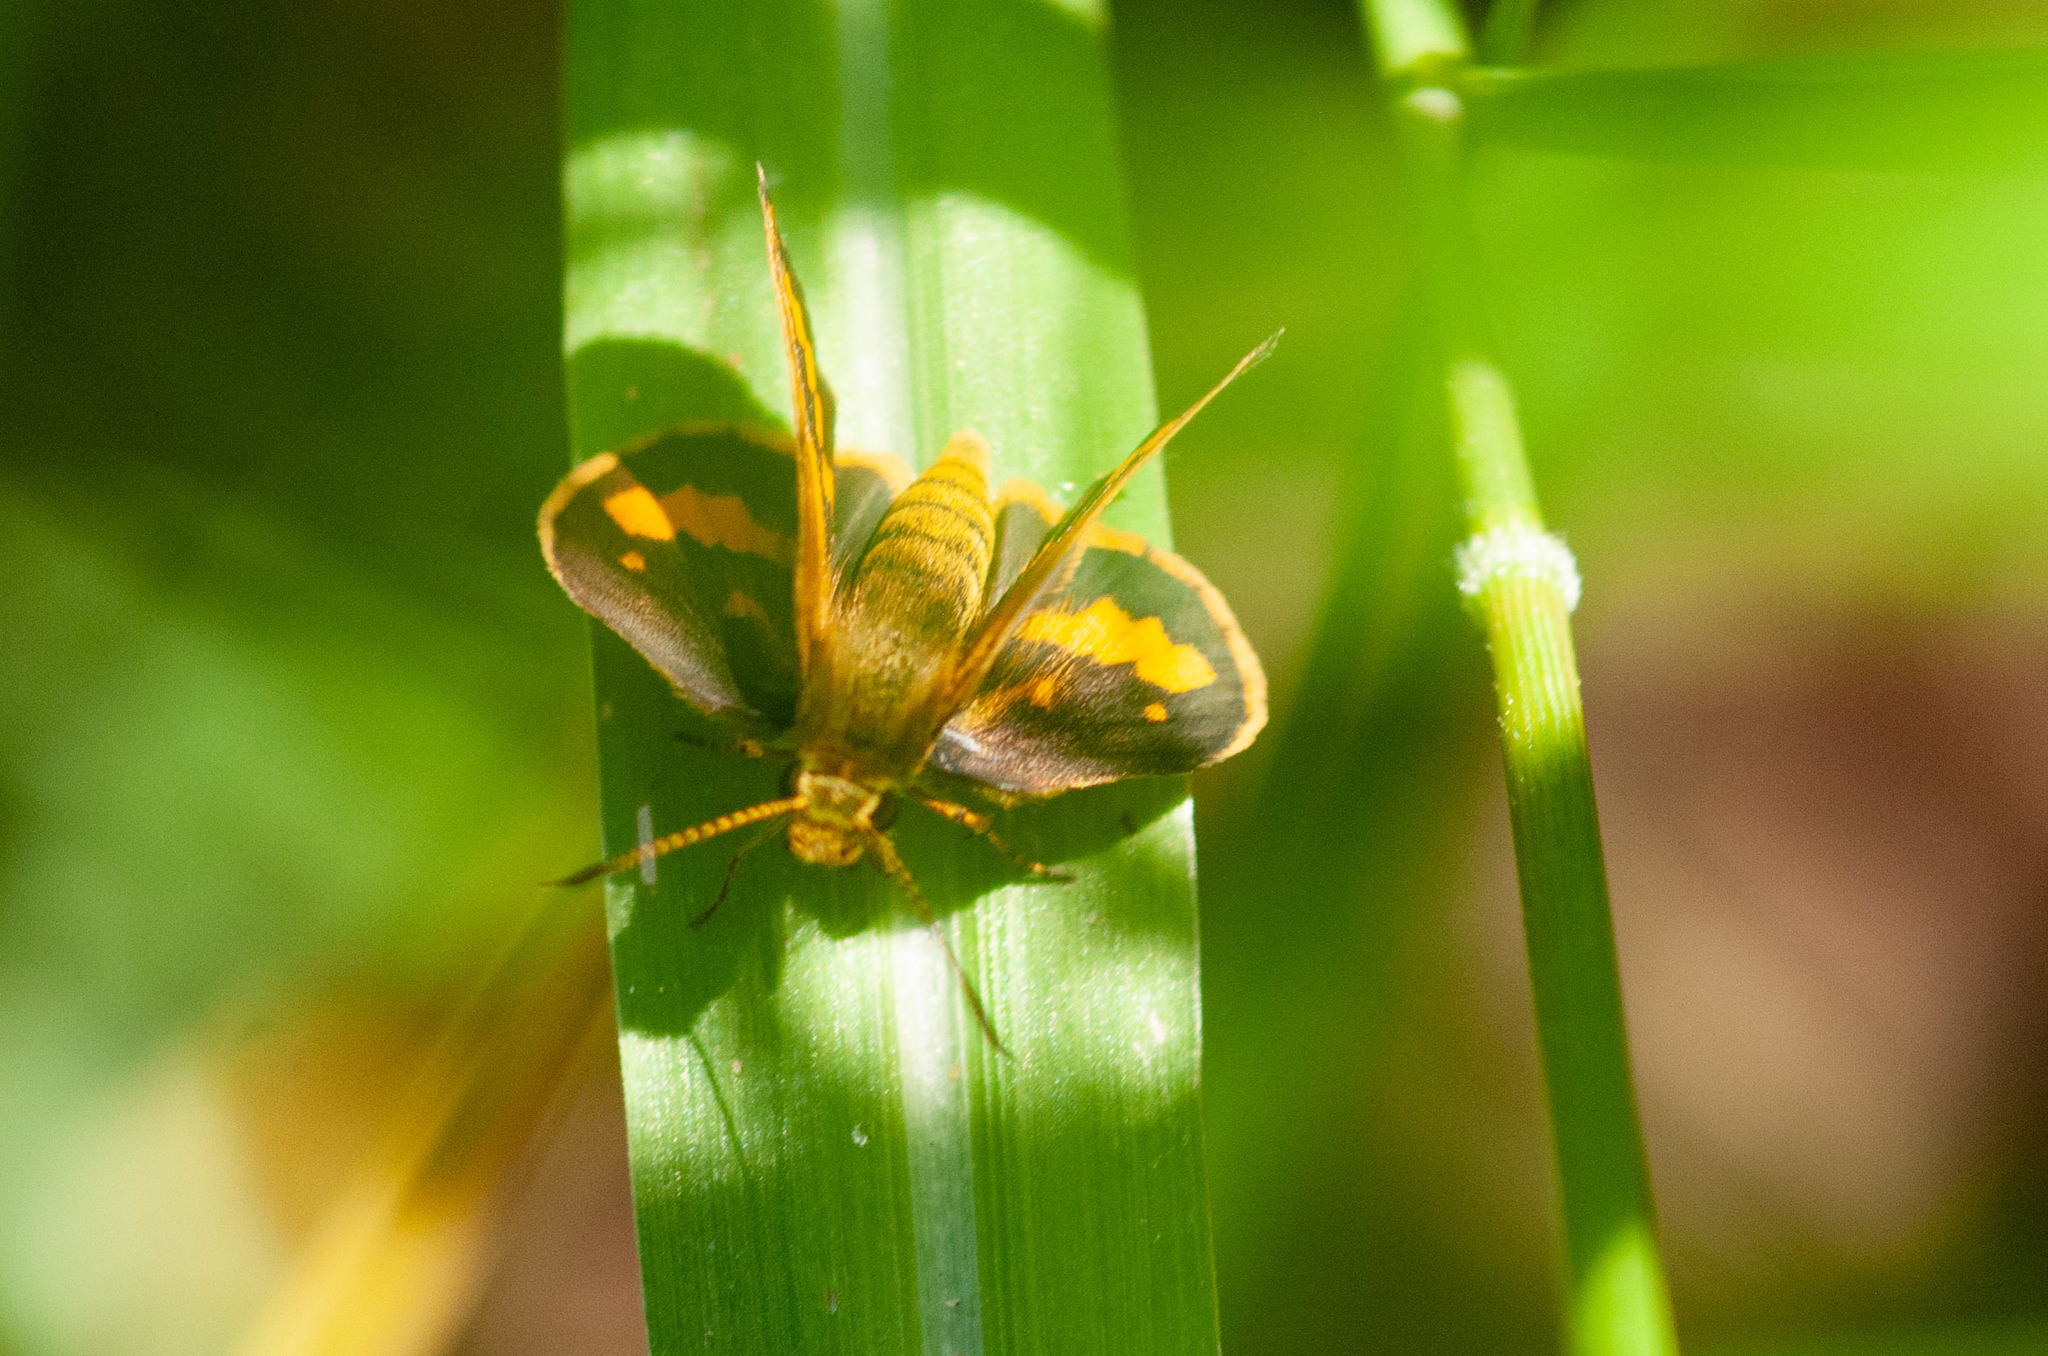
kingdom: Animalia
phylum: Arthropoda
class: Insecta
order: Lepidoptera
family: Hesperiidae
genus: Suniana
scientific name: Suniana sunias
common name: Wide-brand grass-dart
